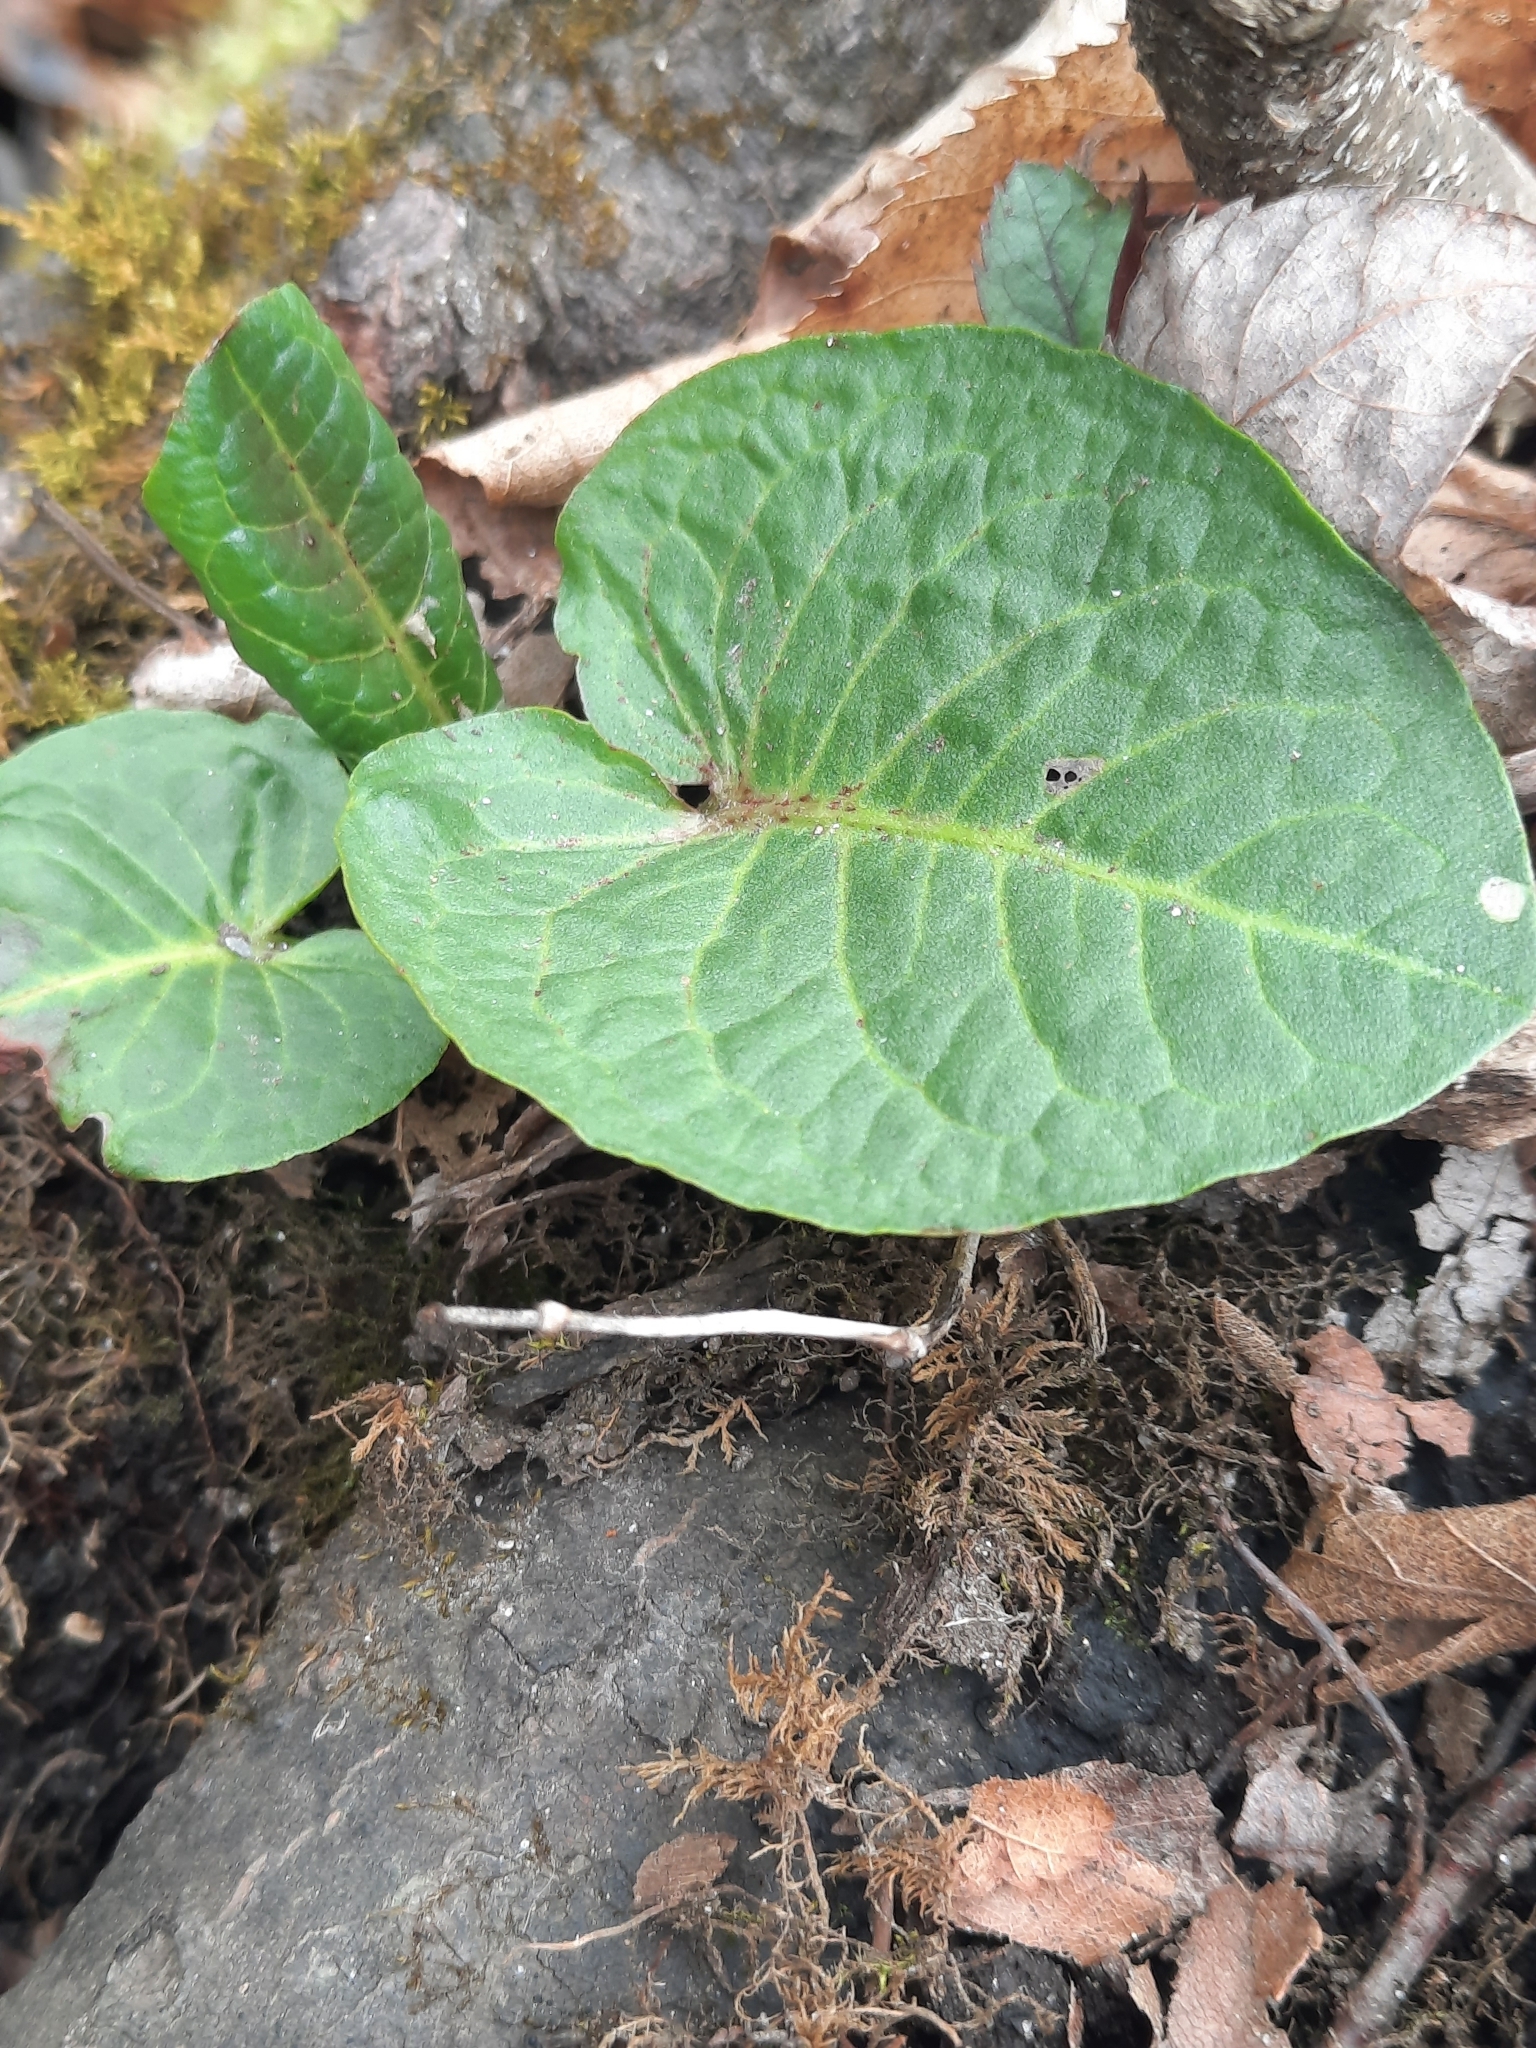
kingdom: Plantae
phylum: Tracheophyta
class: Magnoliopsida
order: Caryophyllales
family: Polygonaceae
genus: Rumex
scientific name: Rumex obtusifolius
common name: Bitter dock
